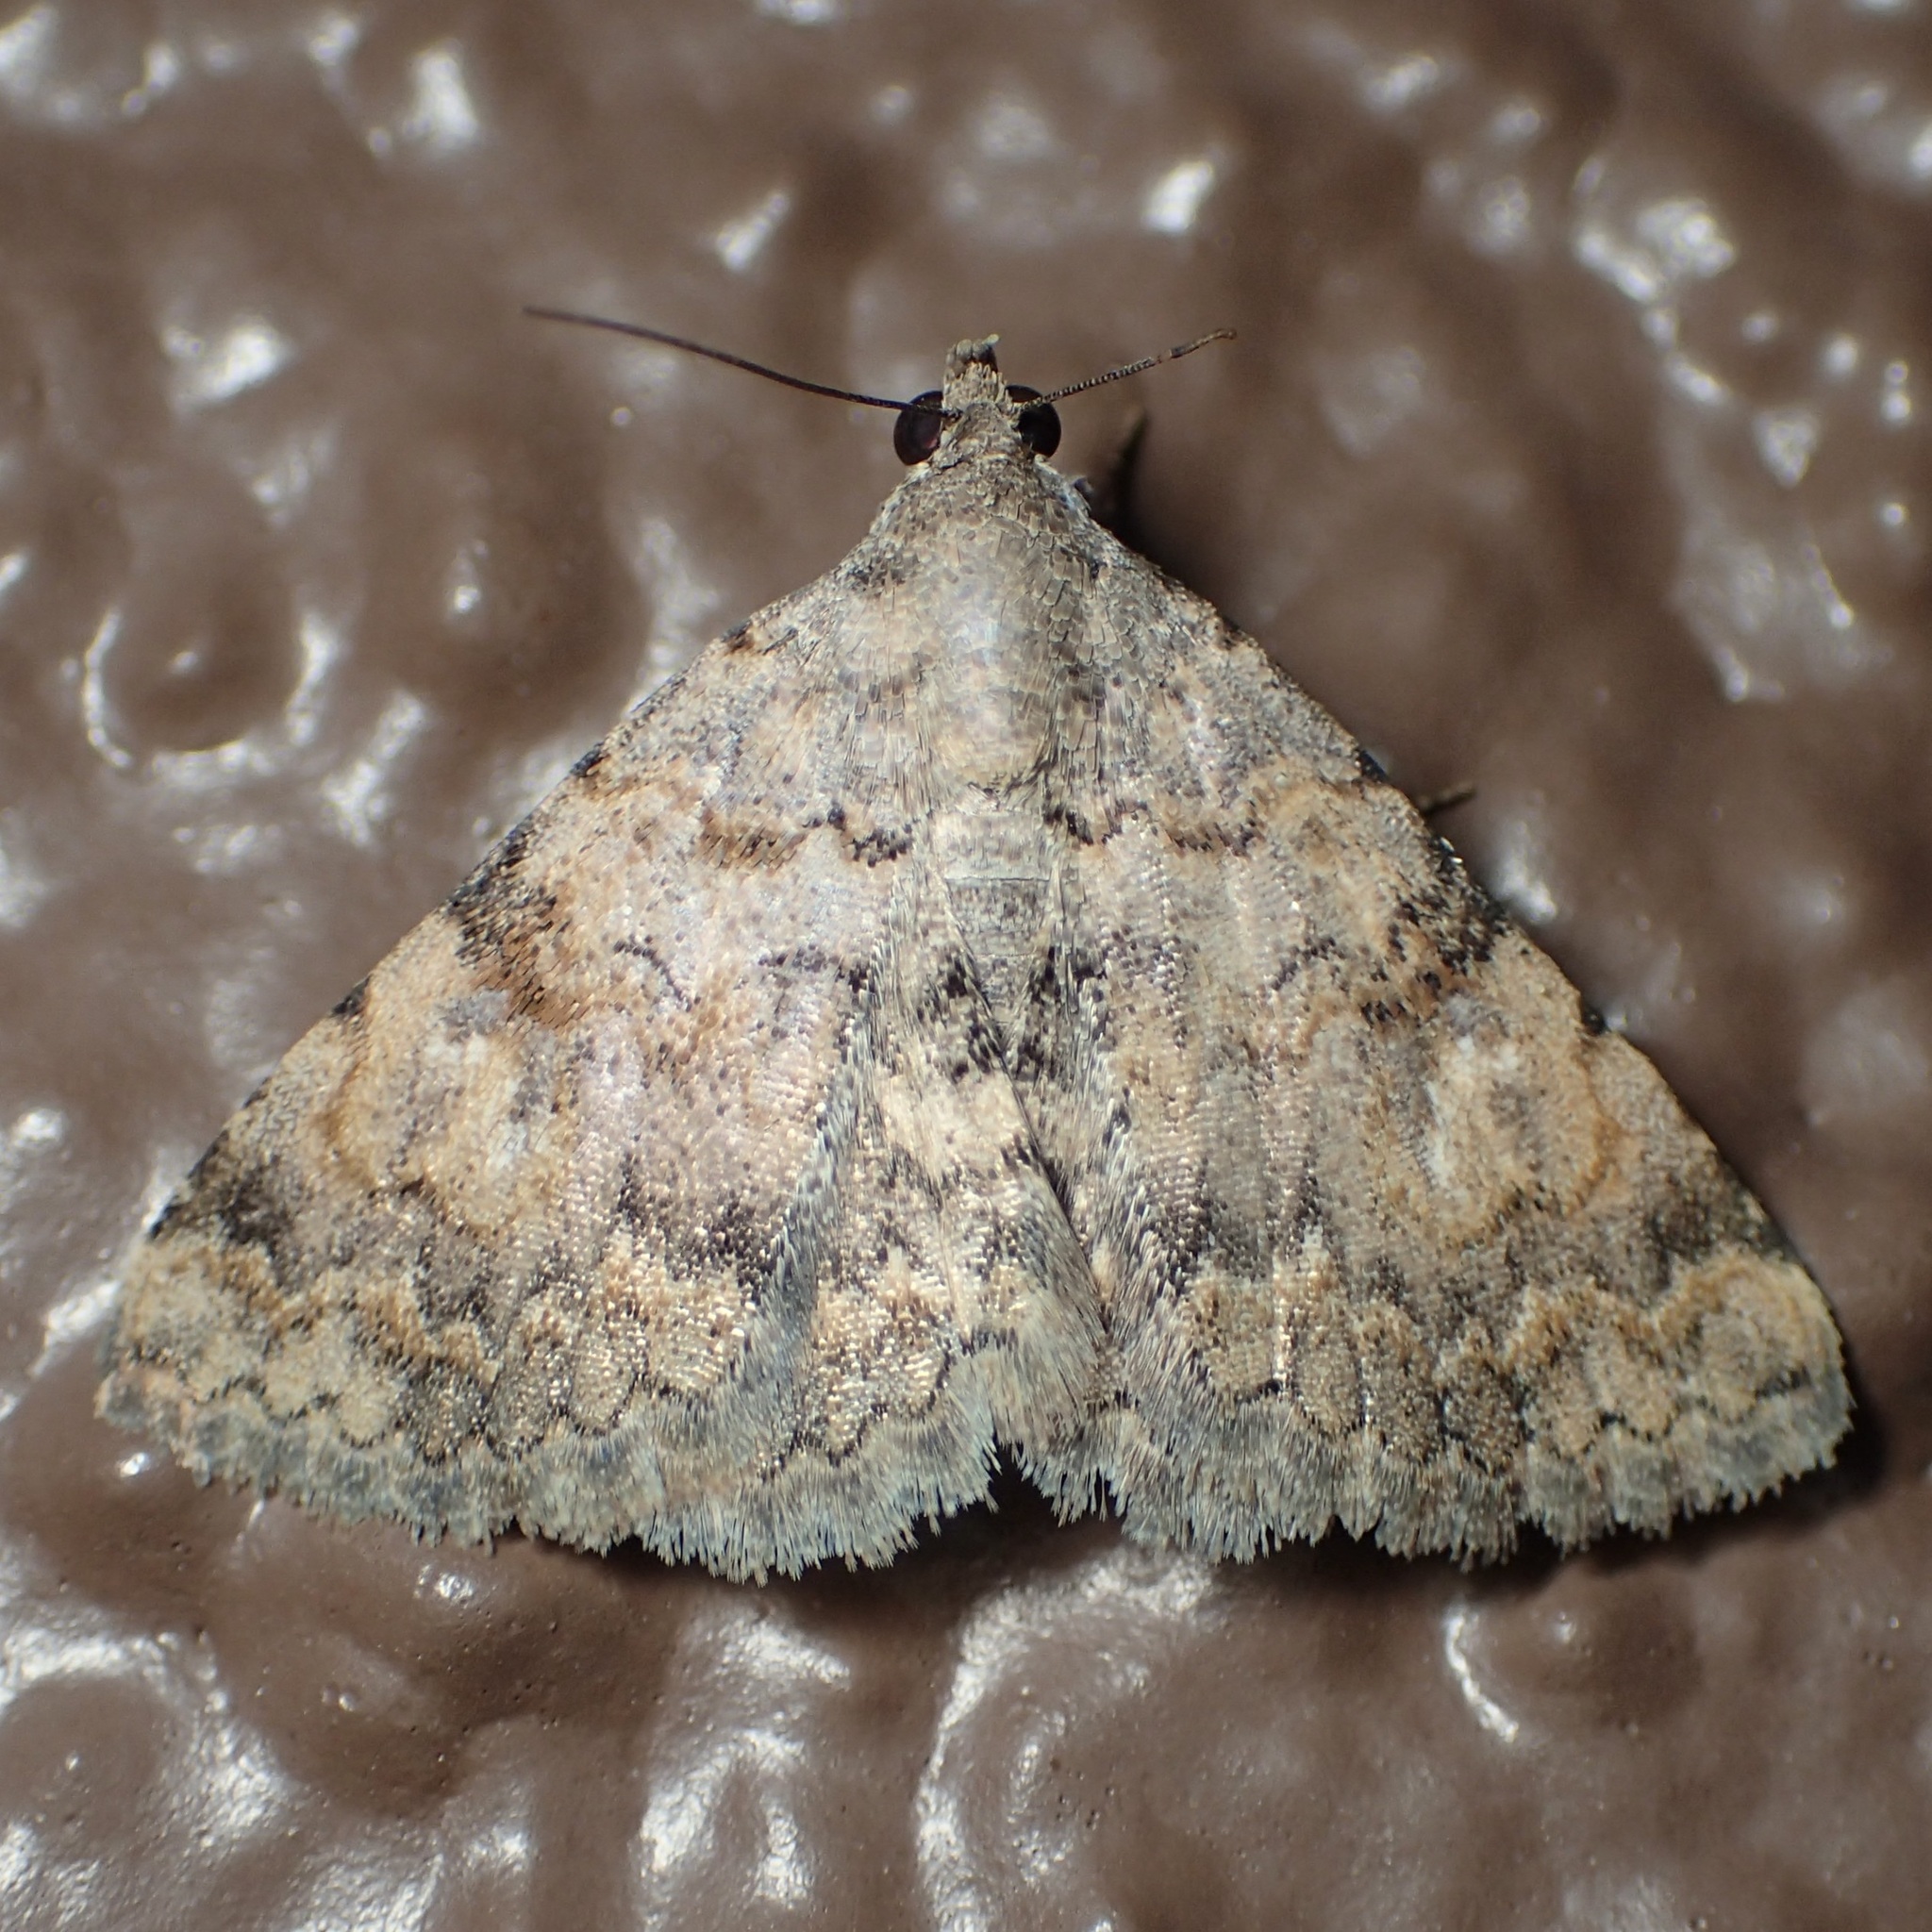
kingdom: Animalia
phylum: Arthropoda
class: Insecta
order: Lepidoptera
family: Erebidae
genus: Toxonprucha
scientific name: Toxonprucha volucris
